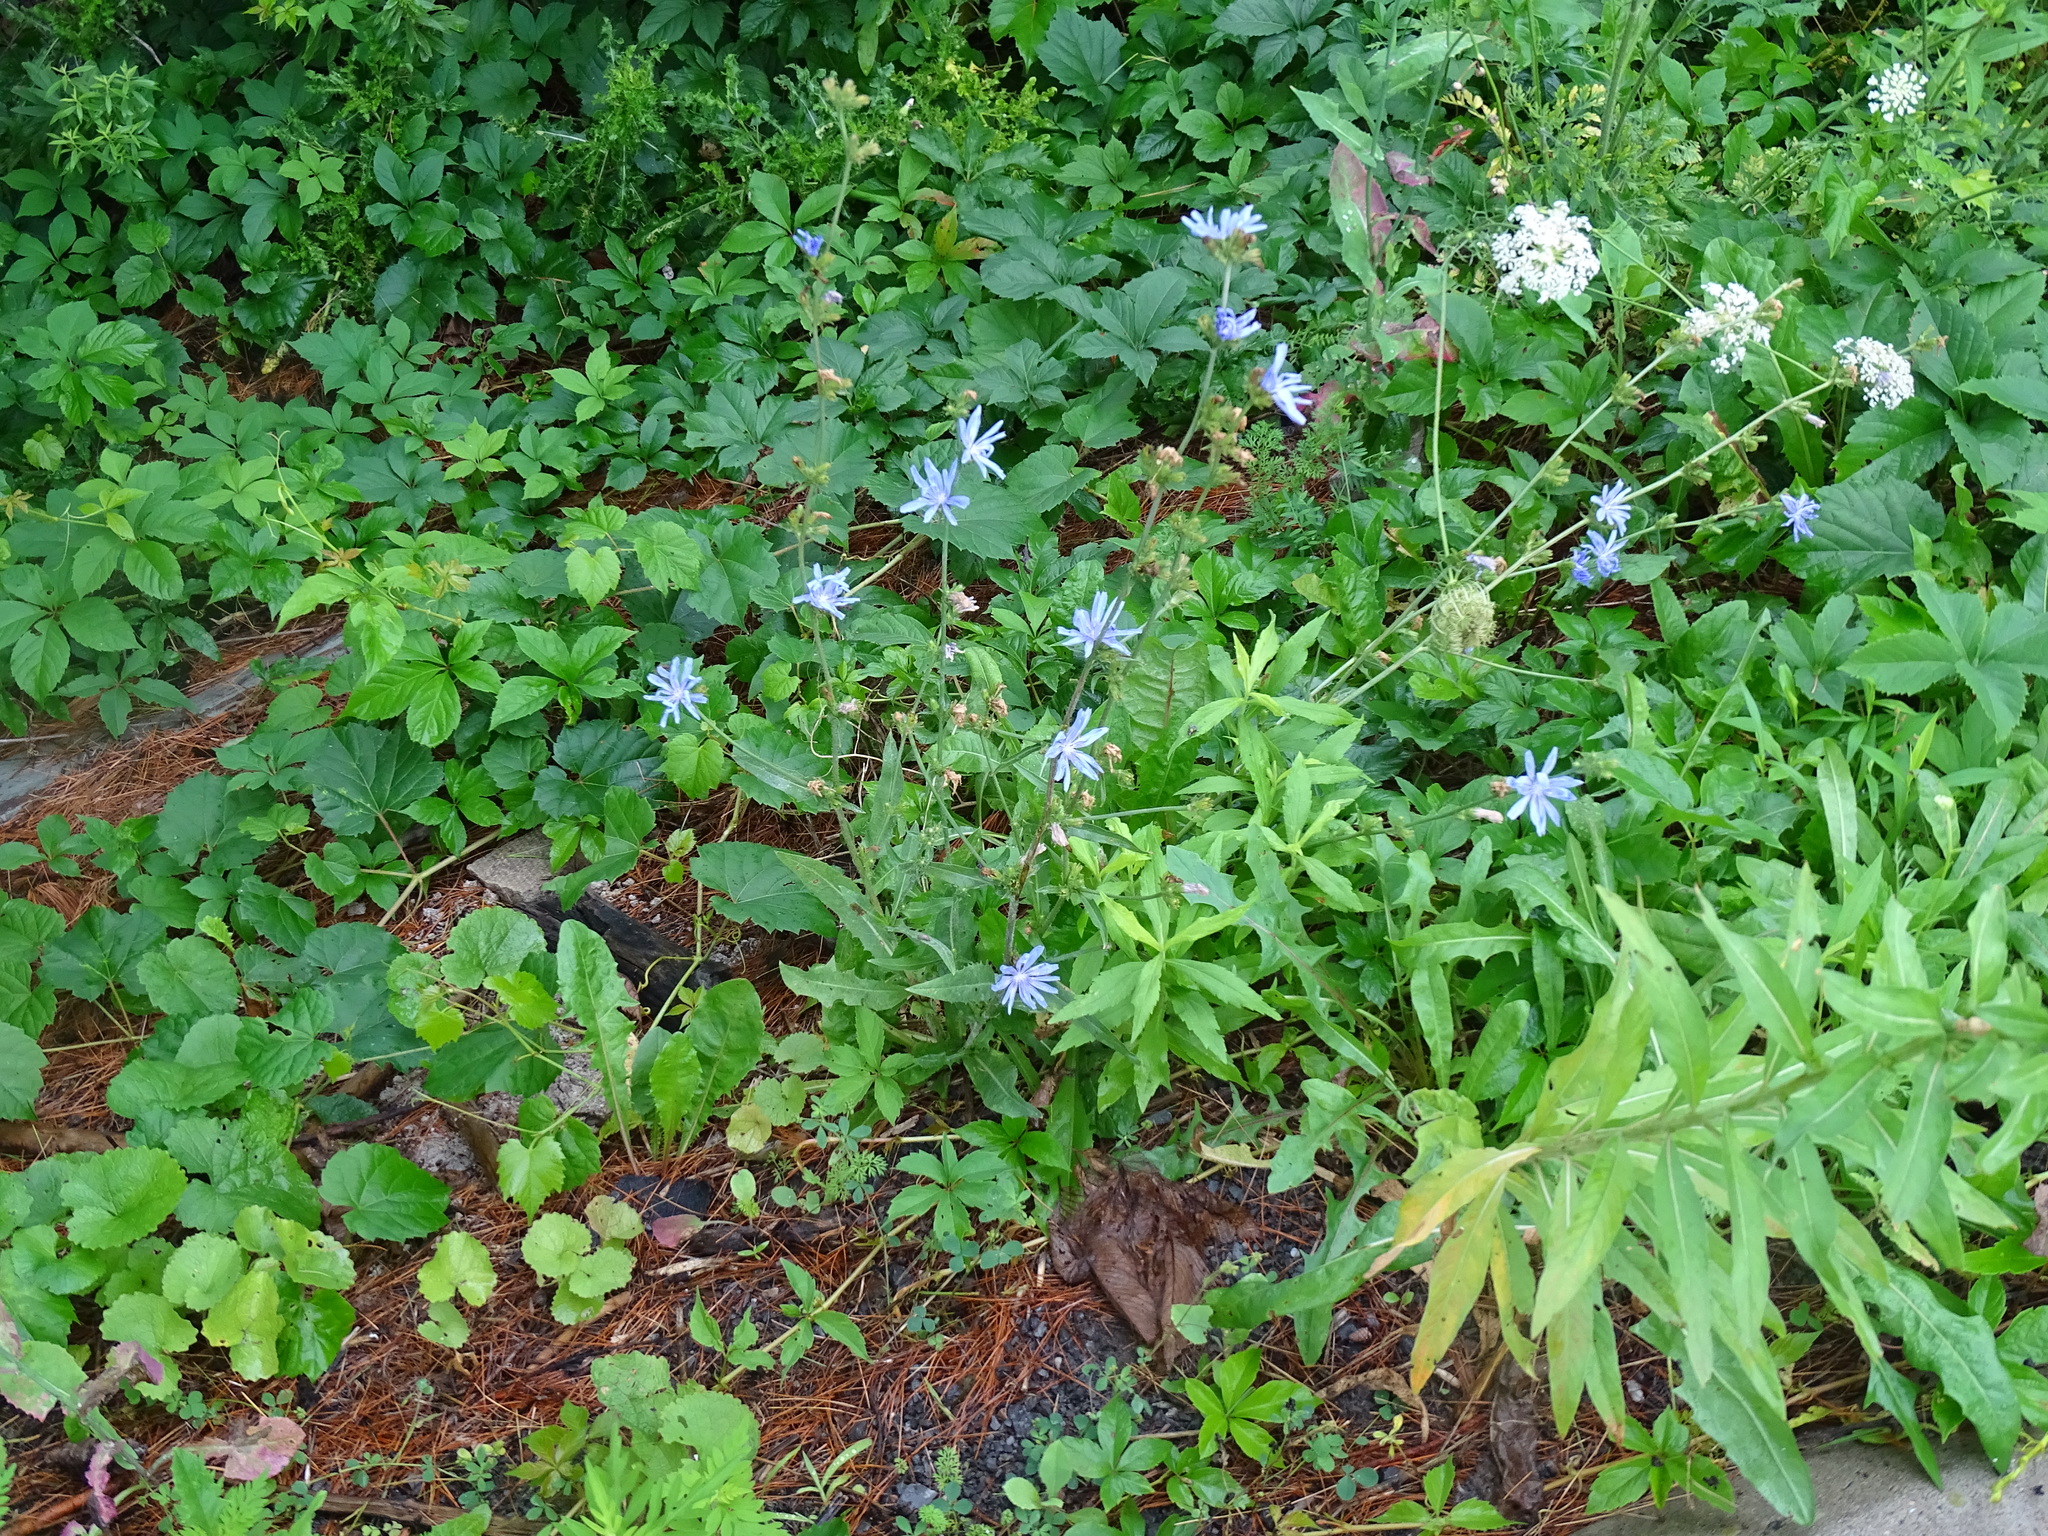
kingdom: Plantae
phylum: Tracheophyta
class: Magnoliopsida
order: Asterales
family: Asteraceae
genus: Cichorium
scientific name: Cichorium intybus
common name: Chicory
